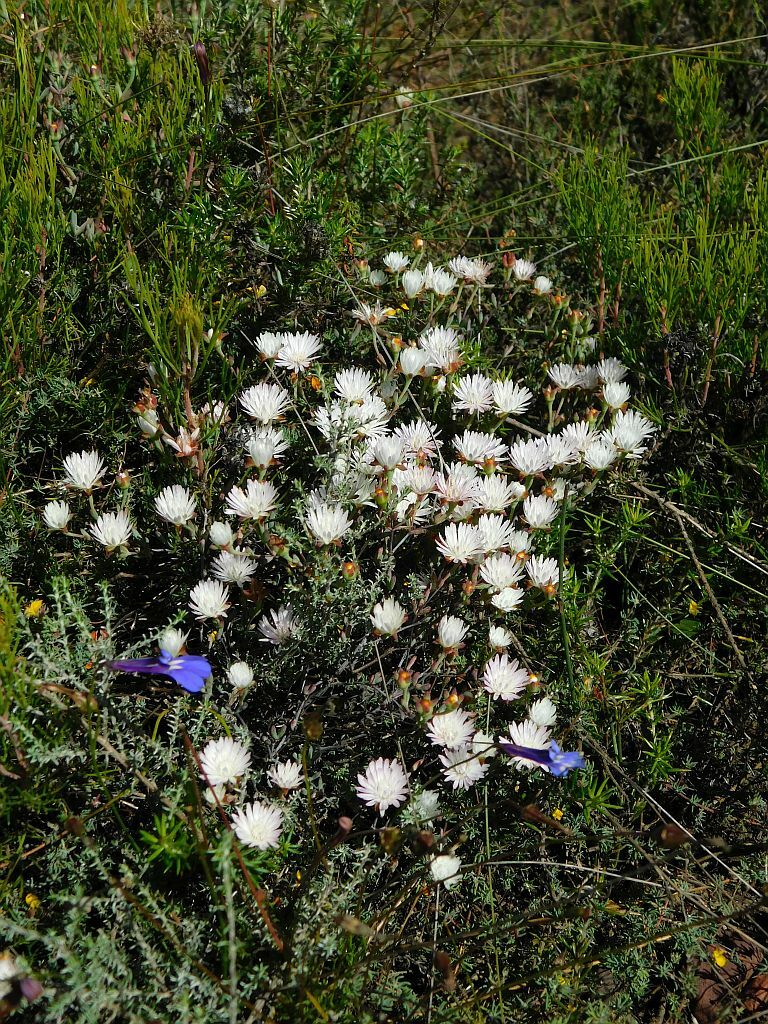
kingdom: Plantae
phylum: Tracheophyta
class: Magnoliopsida
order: Caryophyllales
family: Aizoaceae
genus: Lampranthus
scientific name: Lampranthus falcatus
